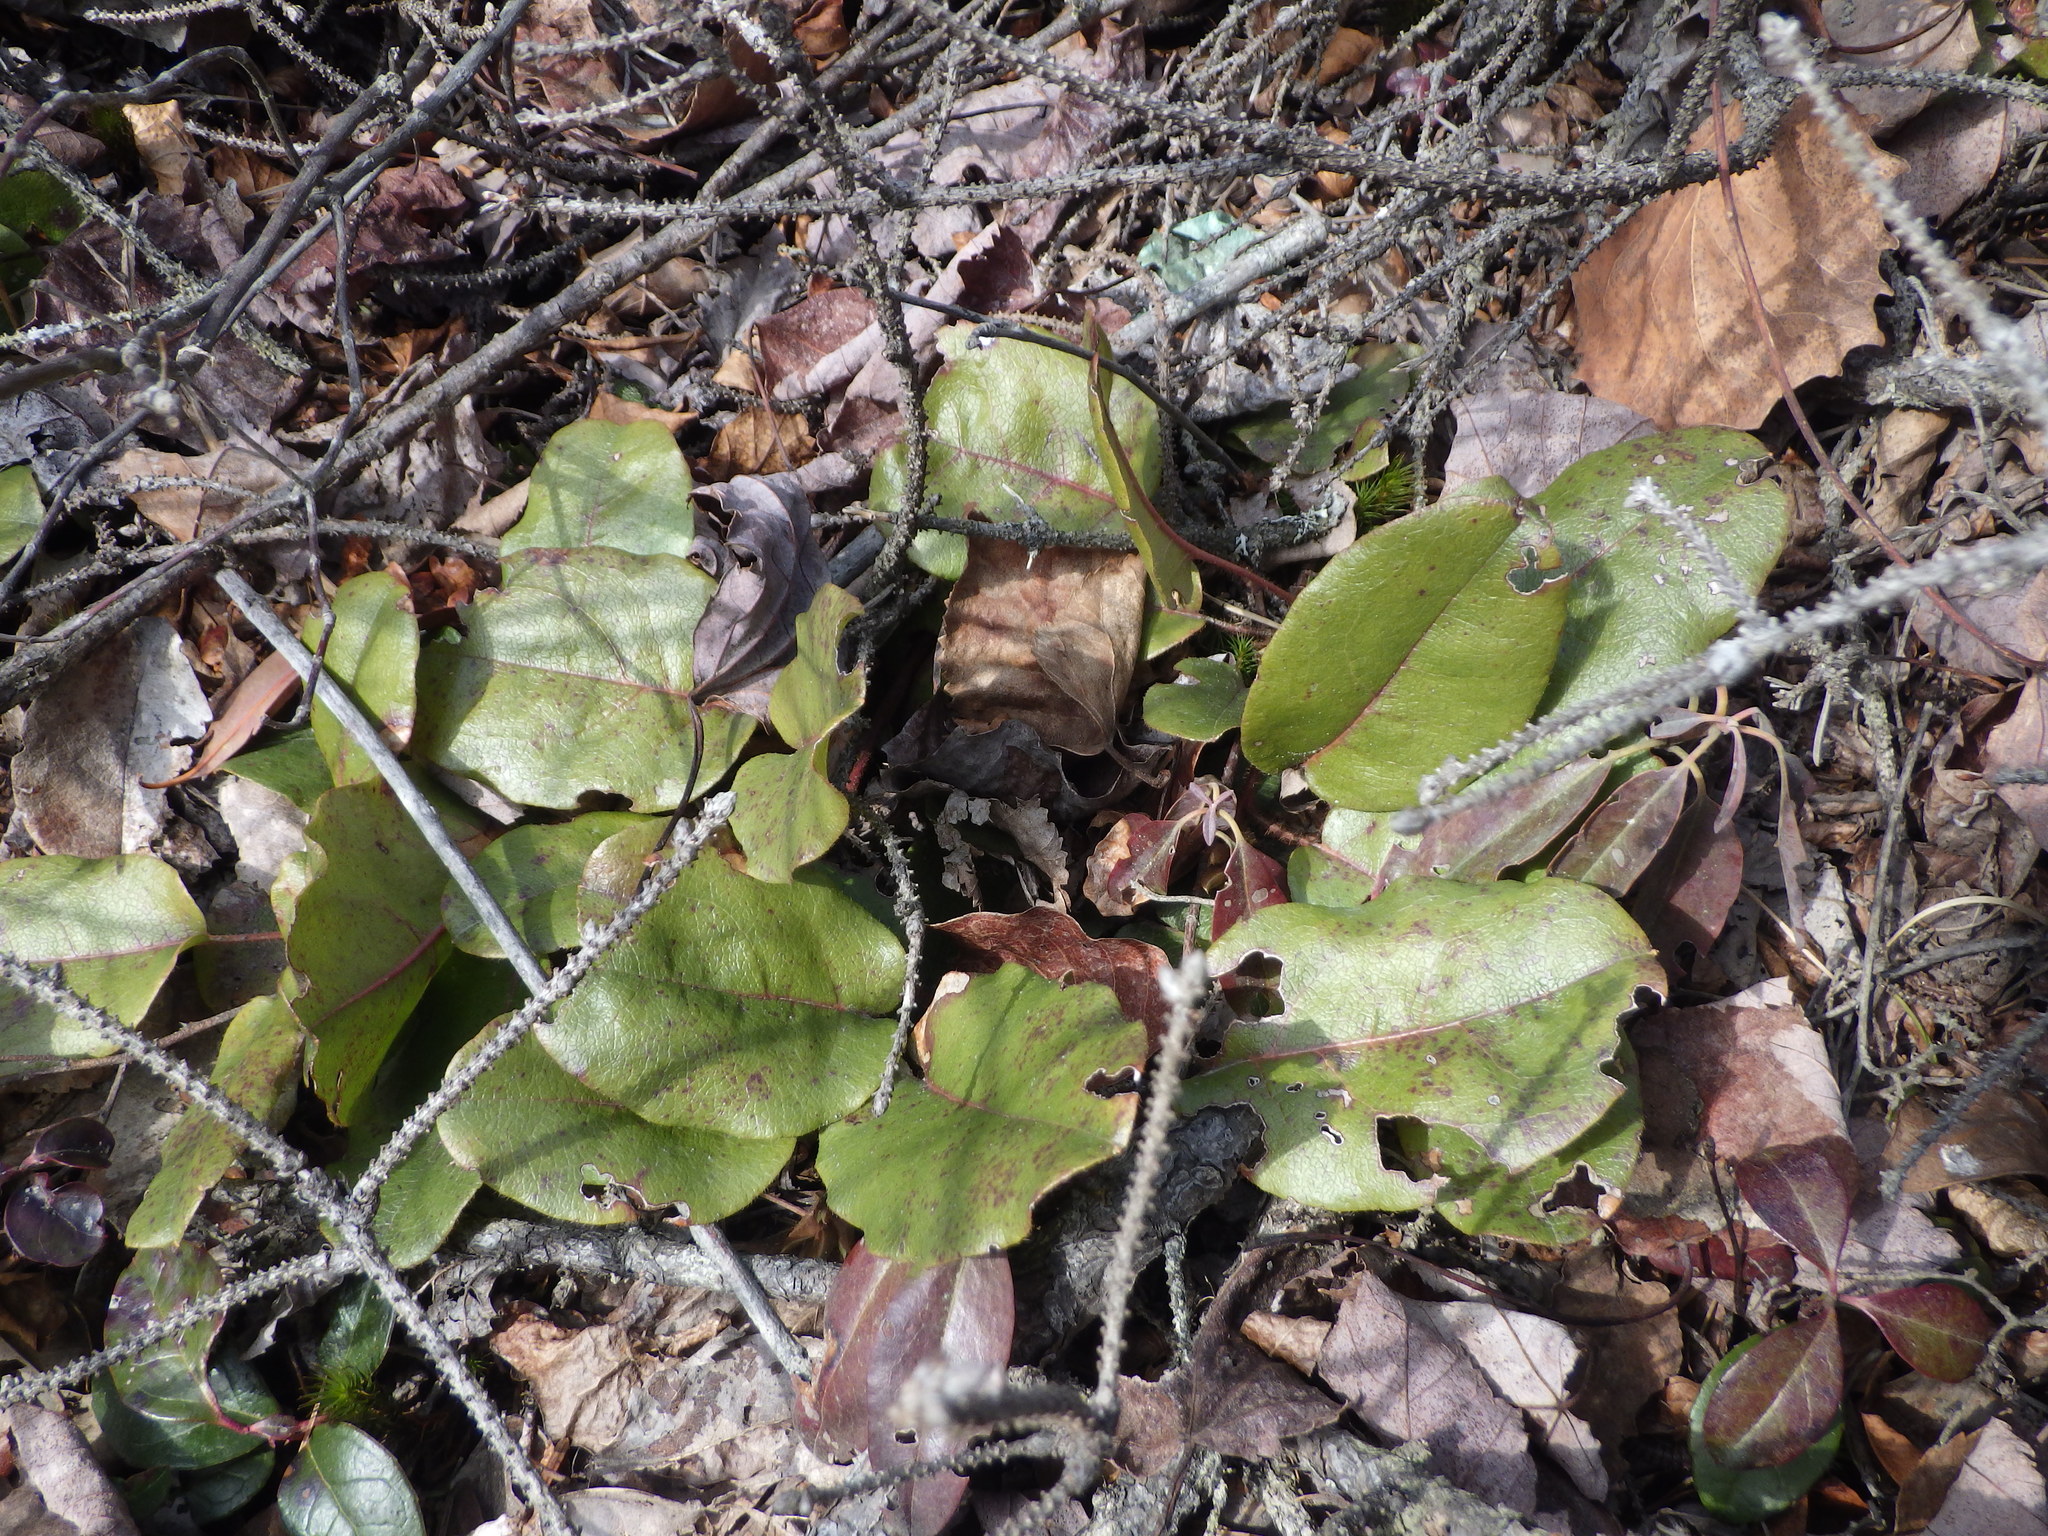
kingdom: Plantae
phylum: Tracheophyta
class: Magnoliopsida
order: Ericales
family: Ericaceae
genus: Epigaea
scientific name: Epigaea repens
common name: Gravelroot
